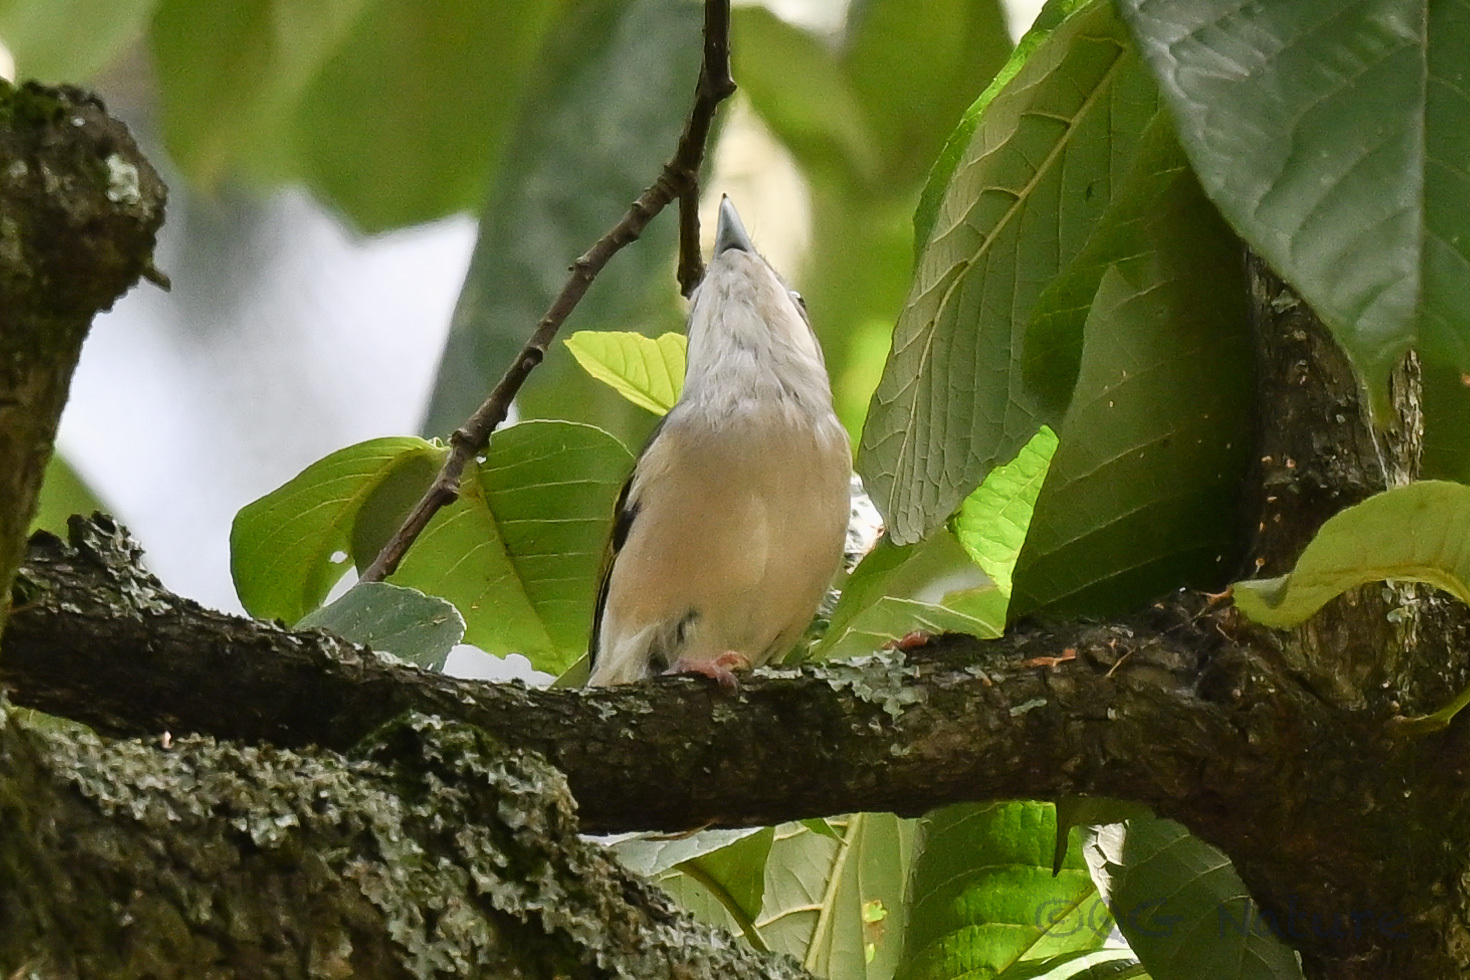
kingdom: Animalia
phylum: Chordata
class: Aves
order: Passeriformes
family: Vireonidae
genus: Pteruthius
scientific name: Pteruthius aeralatus
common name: Blyth's shrike-babbler
